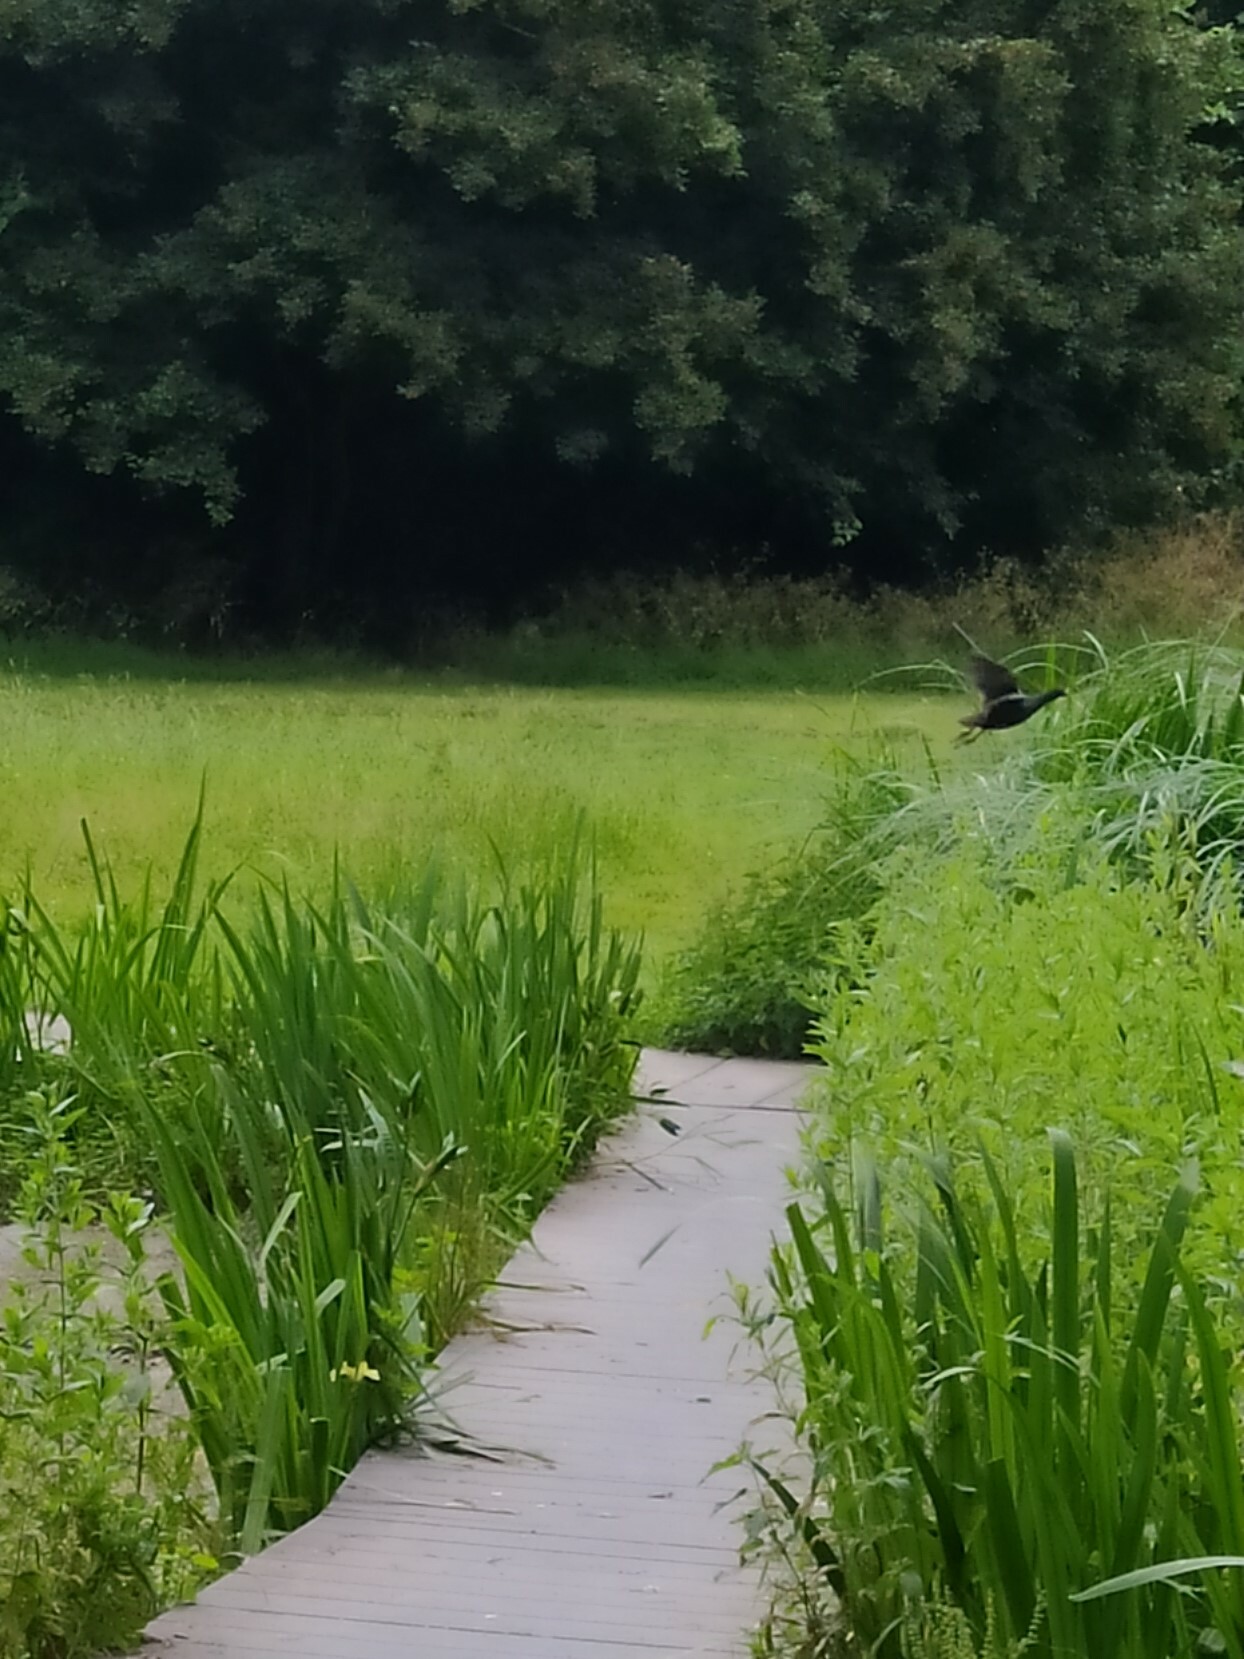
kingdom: Animalia
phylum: Chordata
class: Aves
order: Gruiformes
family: Rallidae
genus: Gallinula
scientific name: Gallinula chloropus
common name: Common moorhen
